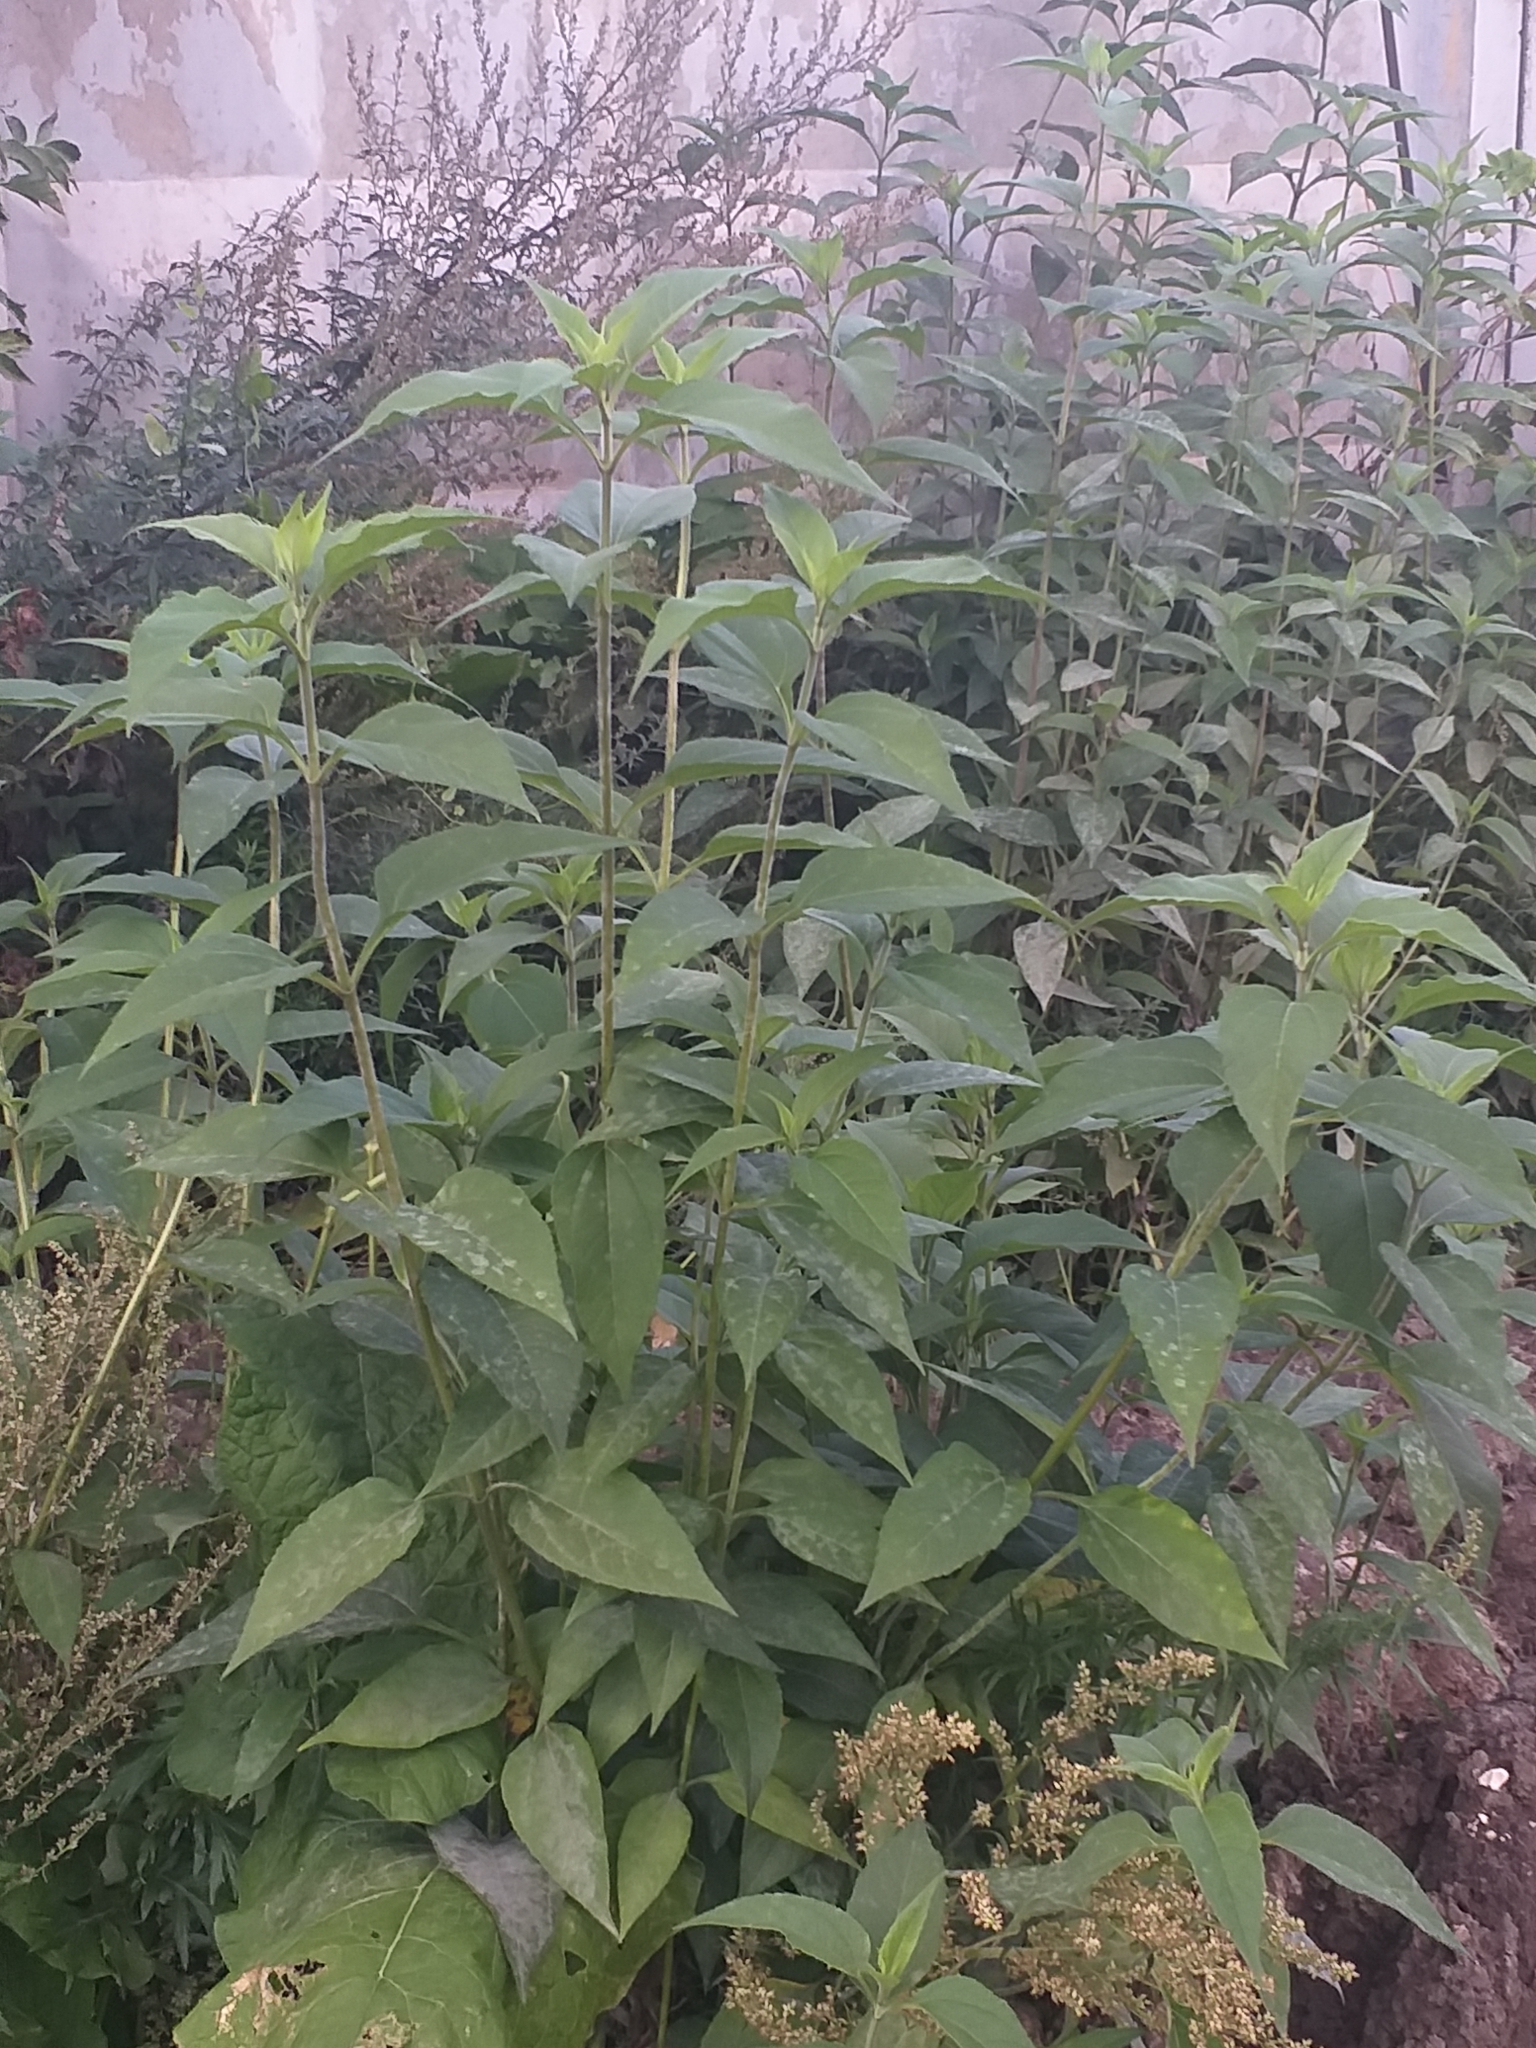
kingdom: Plantae
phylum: Tracheophyta
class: Magnoliopsida
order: Asterales
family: Asteraceae
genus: Helianthus
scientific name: Helianthus tuberosus
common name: Jerusalem artichoke
